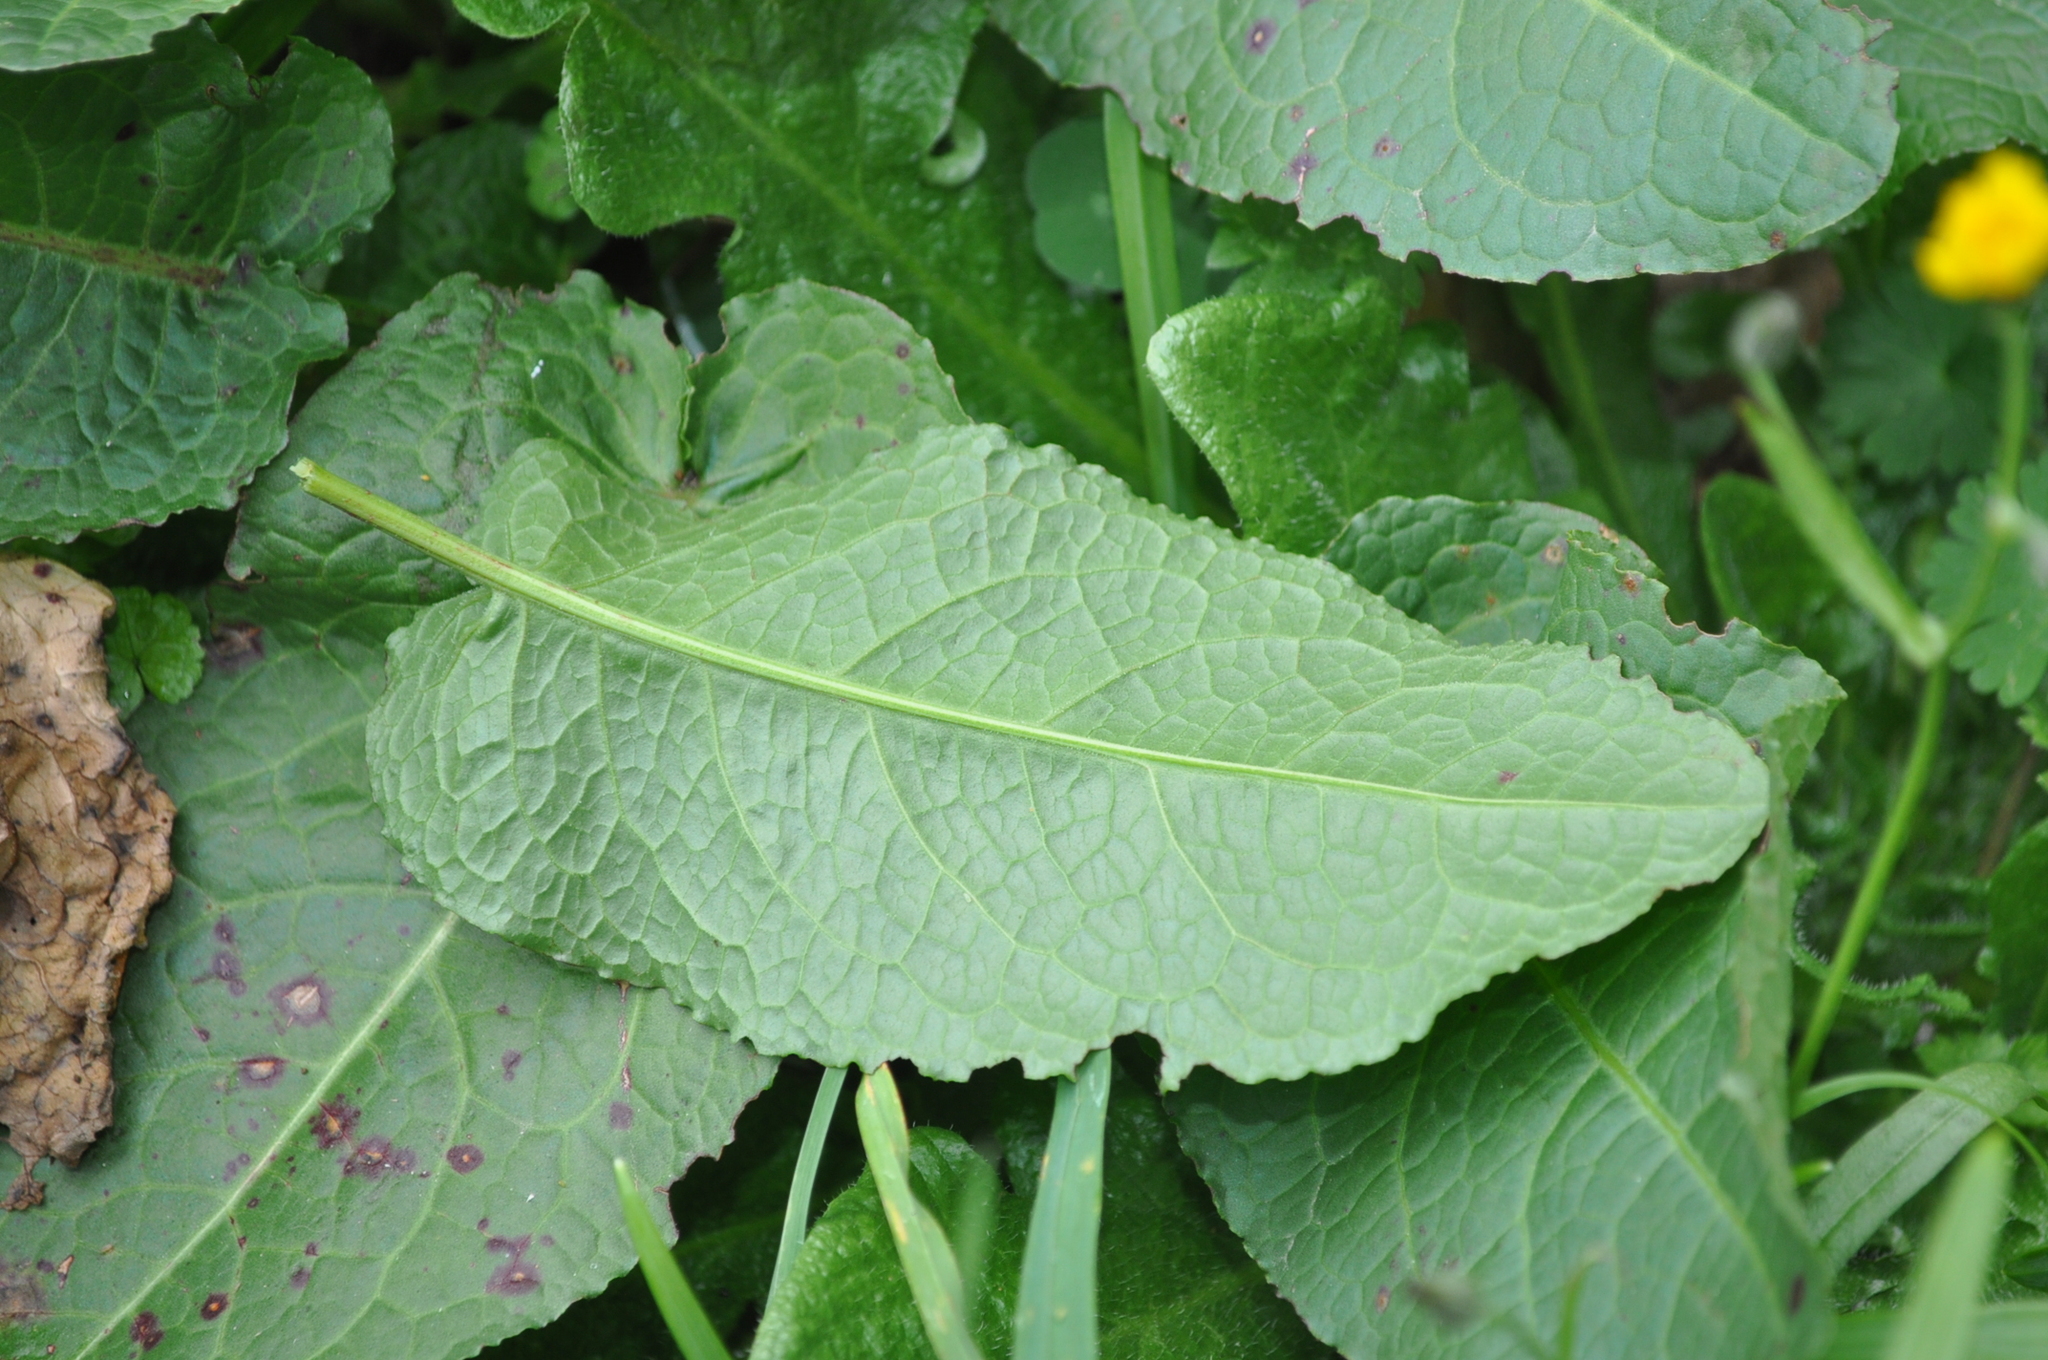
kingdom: Plantae
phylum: Tracheophyta
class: Magnoliopsida
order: Caryophyllales
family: Polygonaceae
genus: Rumex
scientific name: Rumex obtusifolius
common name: Bitter dock
